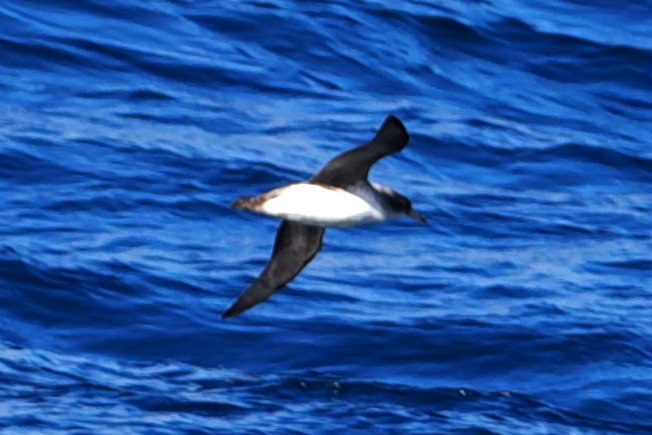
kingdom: Animalia
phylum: Chordata
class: Aves
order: Procellariiformes
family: Procellariidae
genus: Procellaria
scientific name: Procellaria cinerea
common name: Grey petrel
